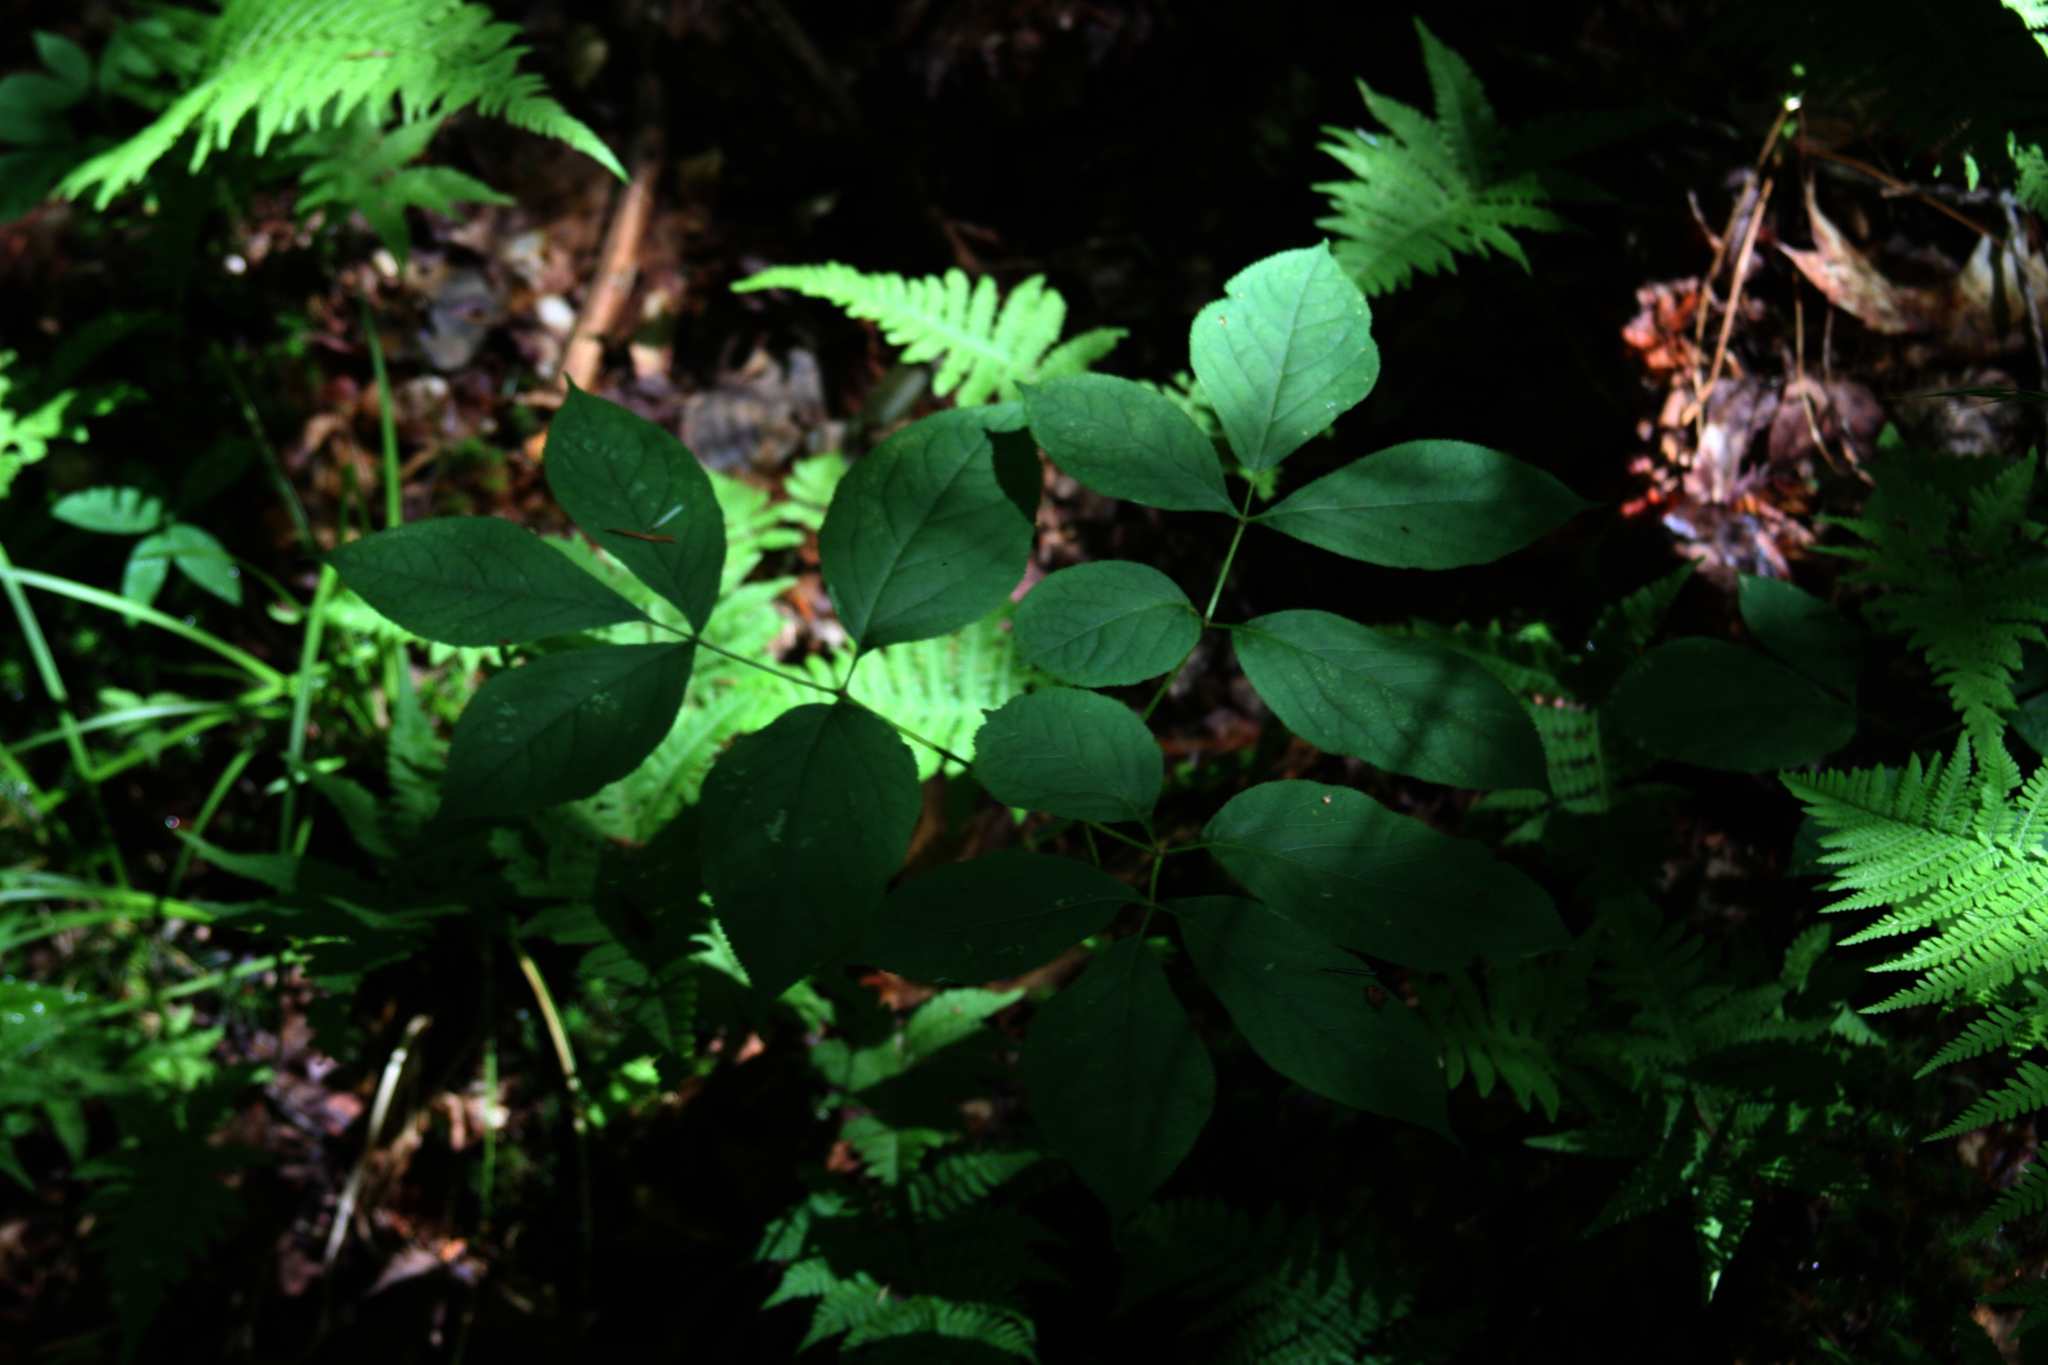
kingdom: Plantae
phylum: Tracheophyta
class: Magnoliopsida
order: Apiales
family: Araliaceae
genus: Aralia
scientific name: Aralia nudicaulis
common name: Wild sarsaparilla
